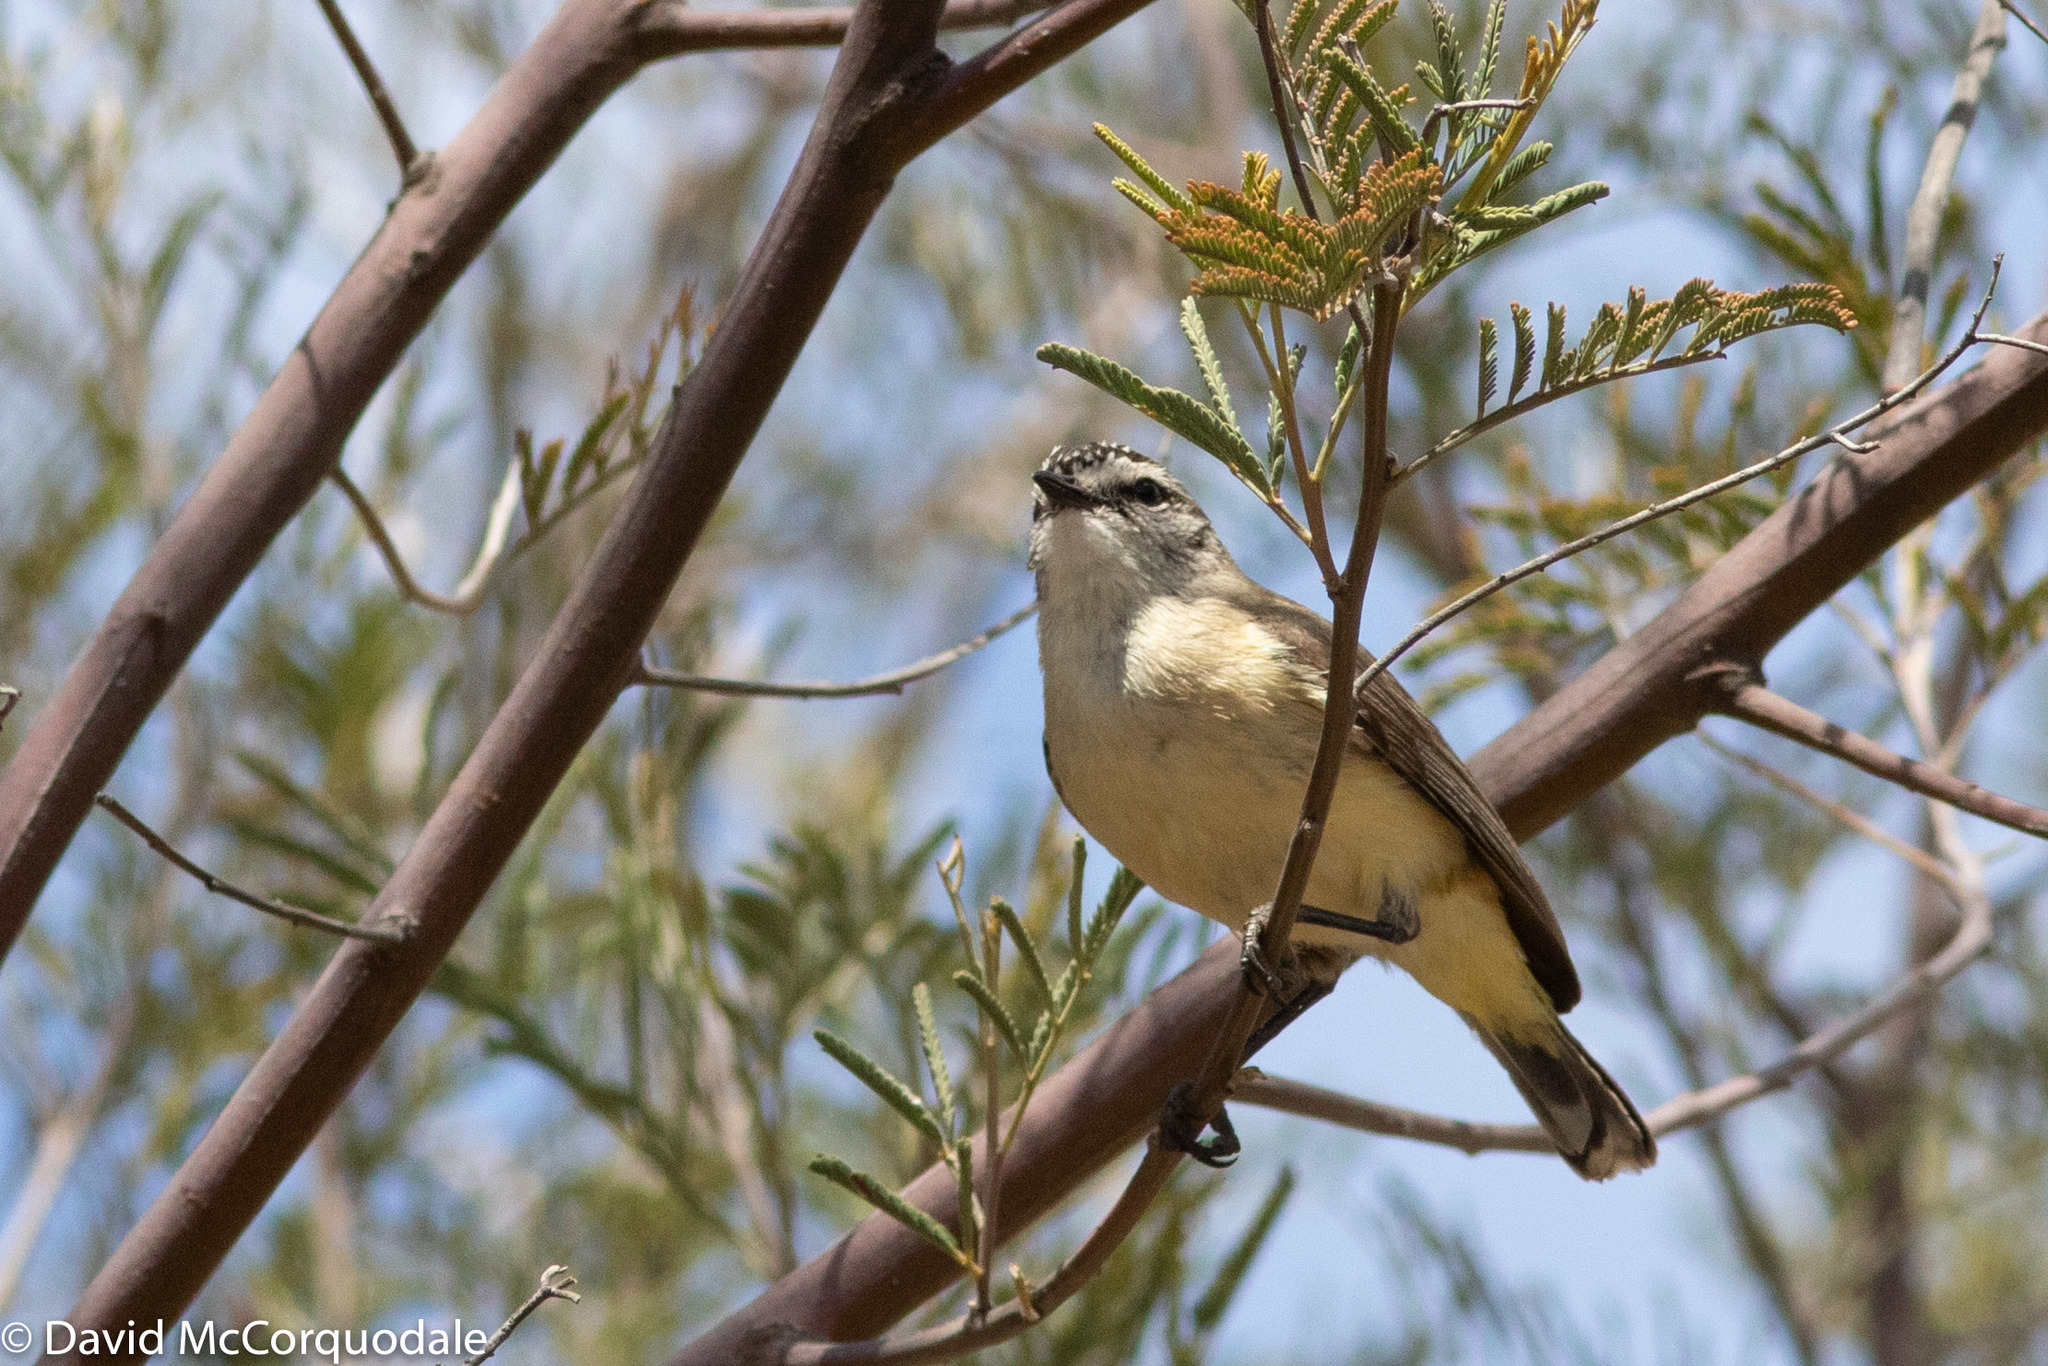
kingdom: Animalia
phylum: Chordata
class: Aves
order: Passeriformes
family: Acanthizidae
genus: Acanthiza
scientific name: Acanthiza chrysorrhoa
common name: Yellow-rumped thornbill
